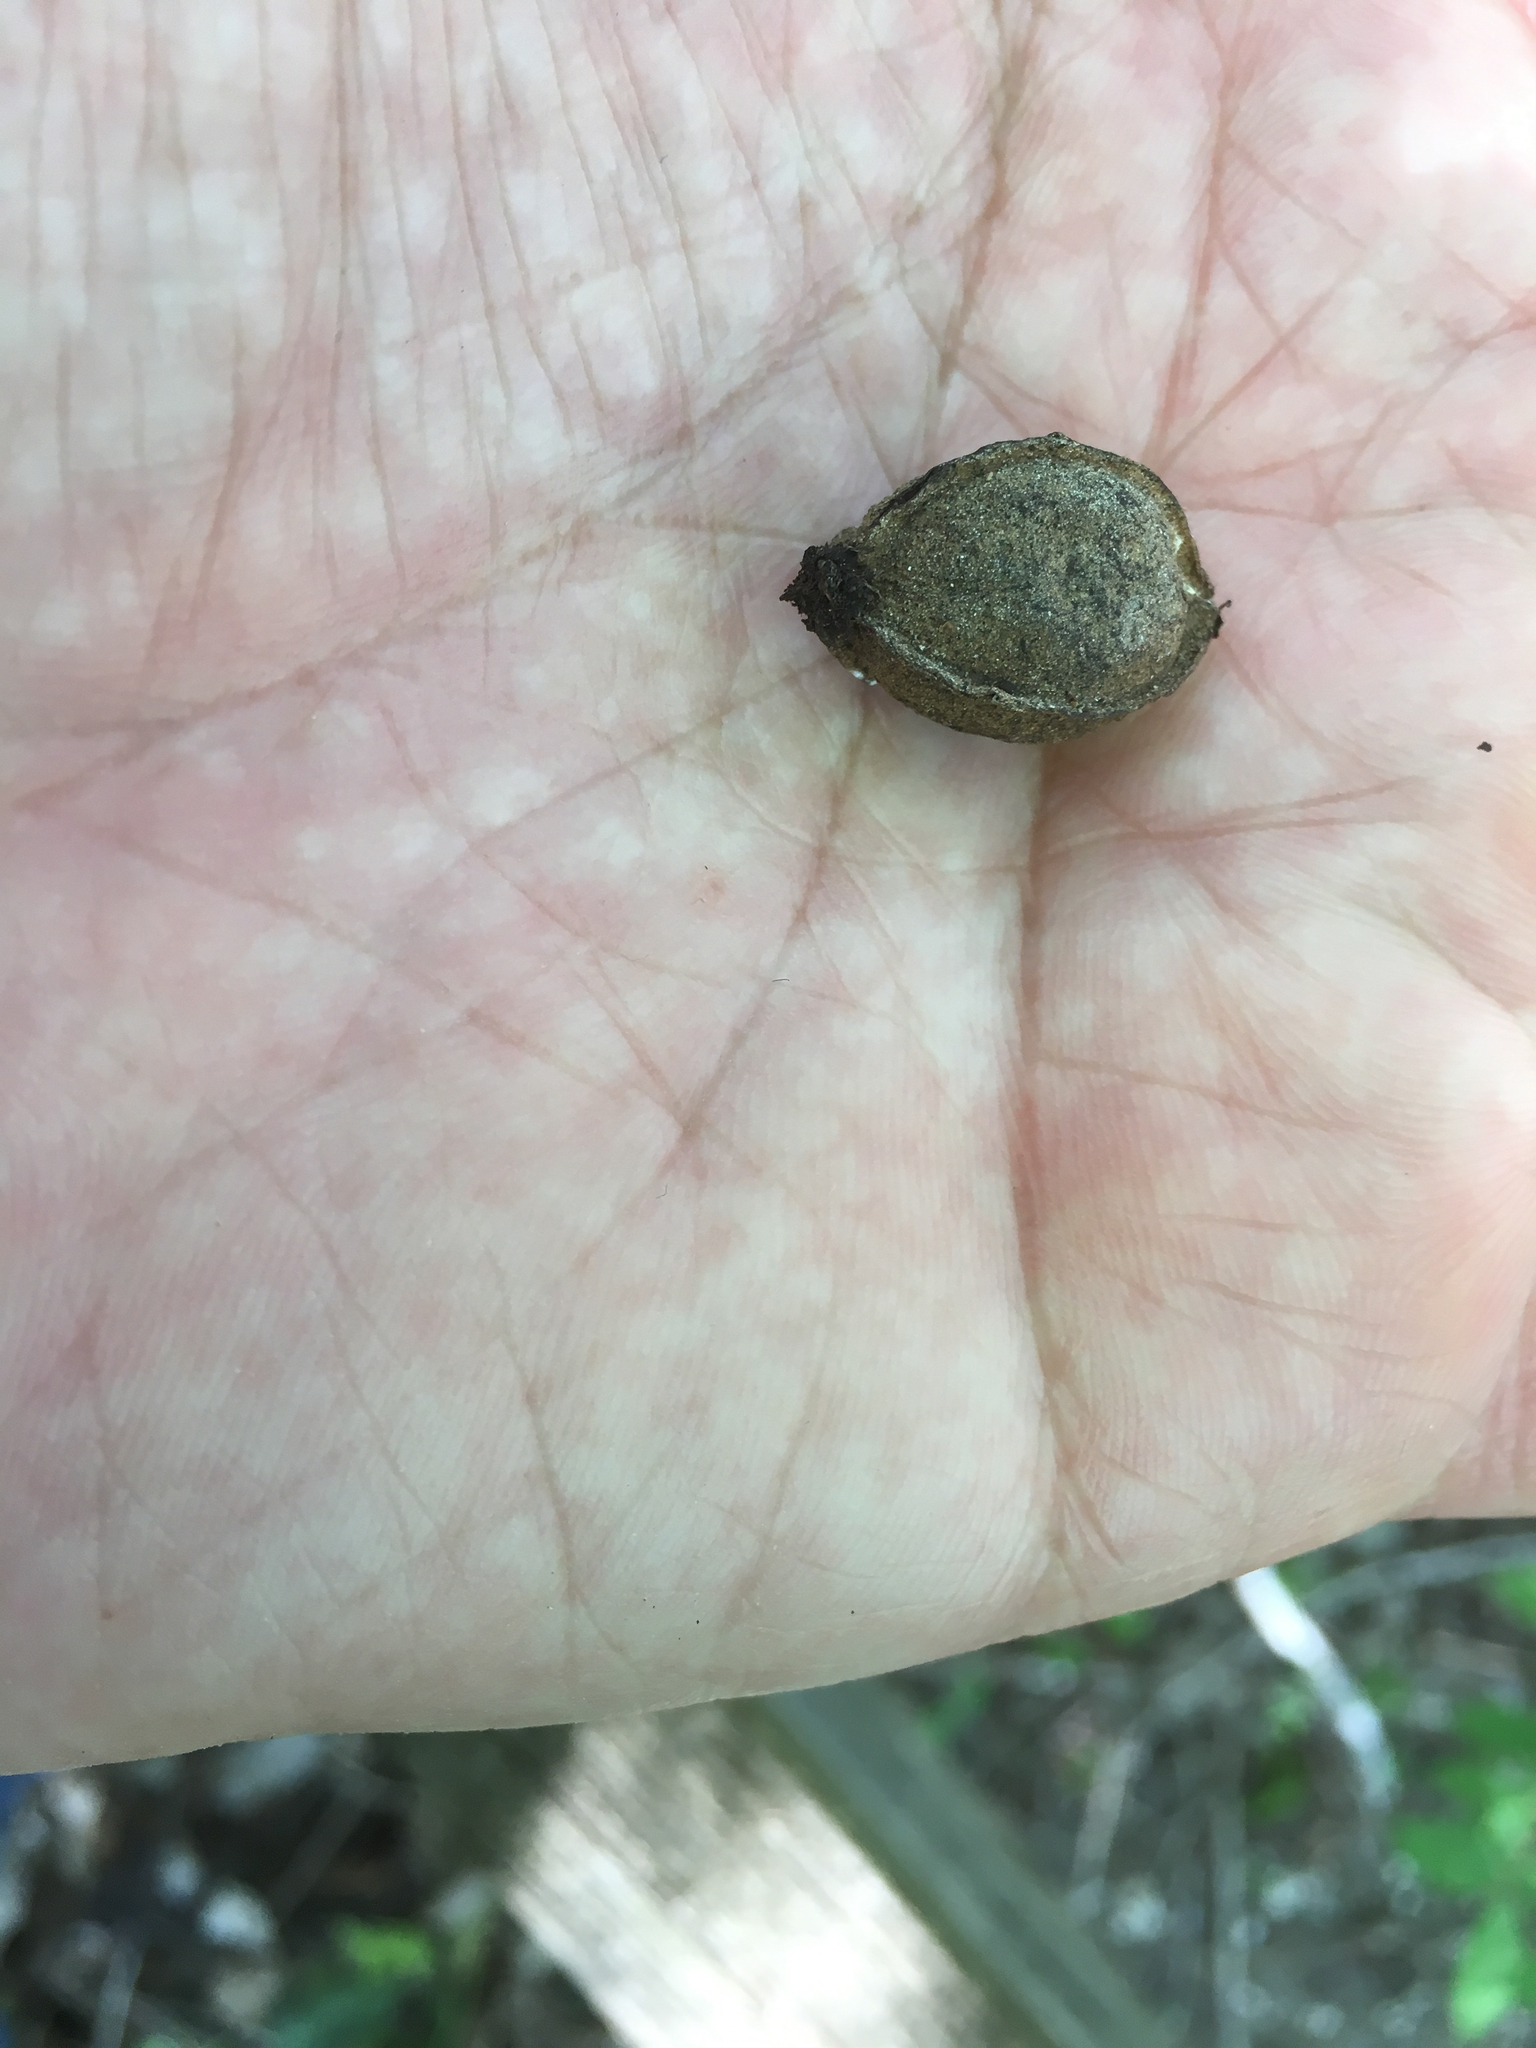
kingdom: Plantae
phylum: Tracheophyta
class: Magnoliopsida
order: Fagales
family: Juglandaceae
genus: Carya
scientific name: Carya myristiciformis
